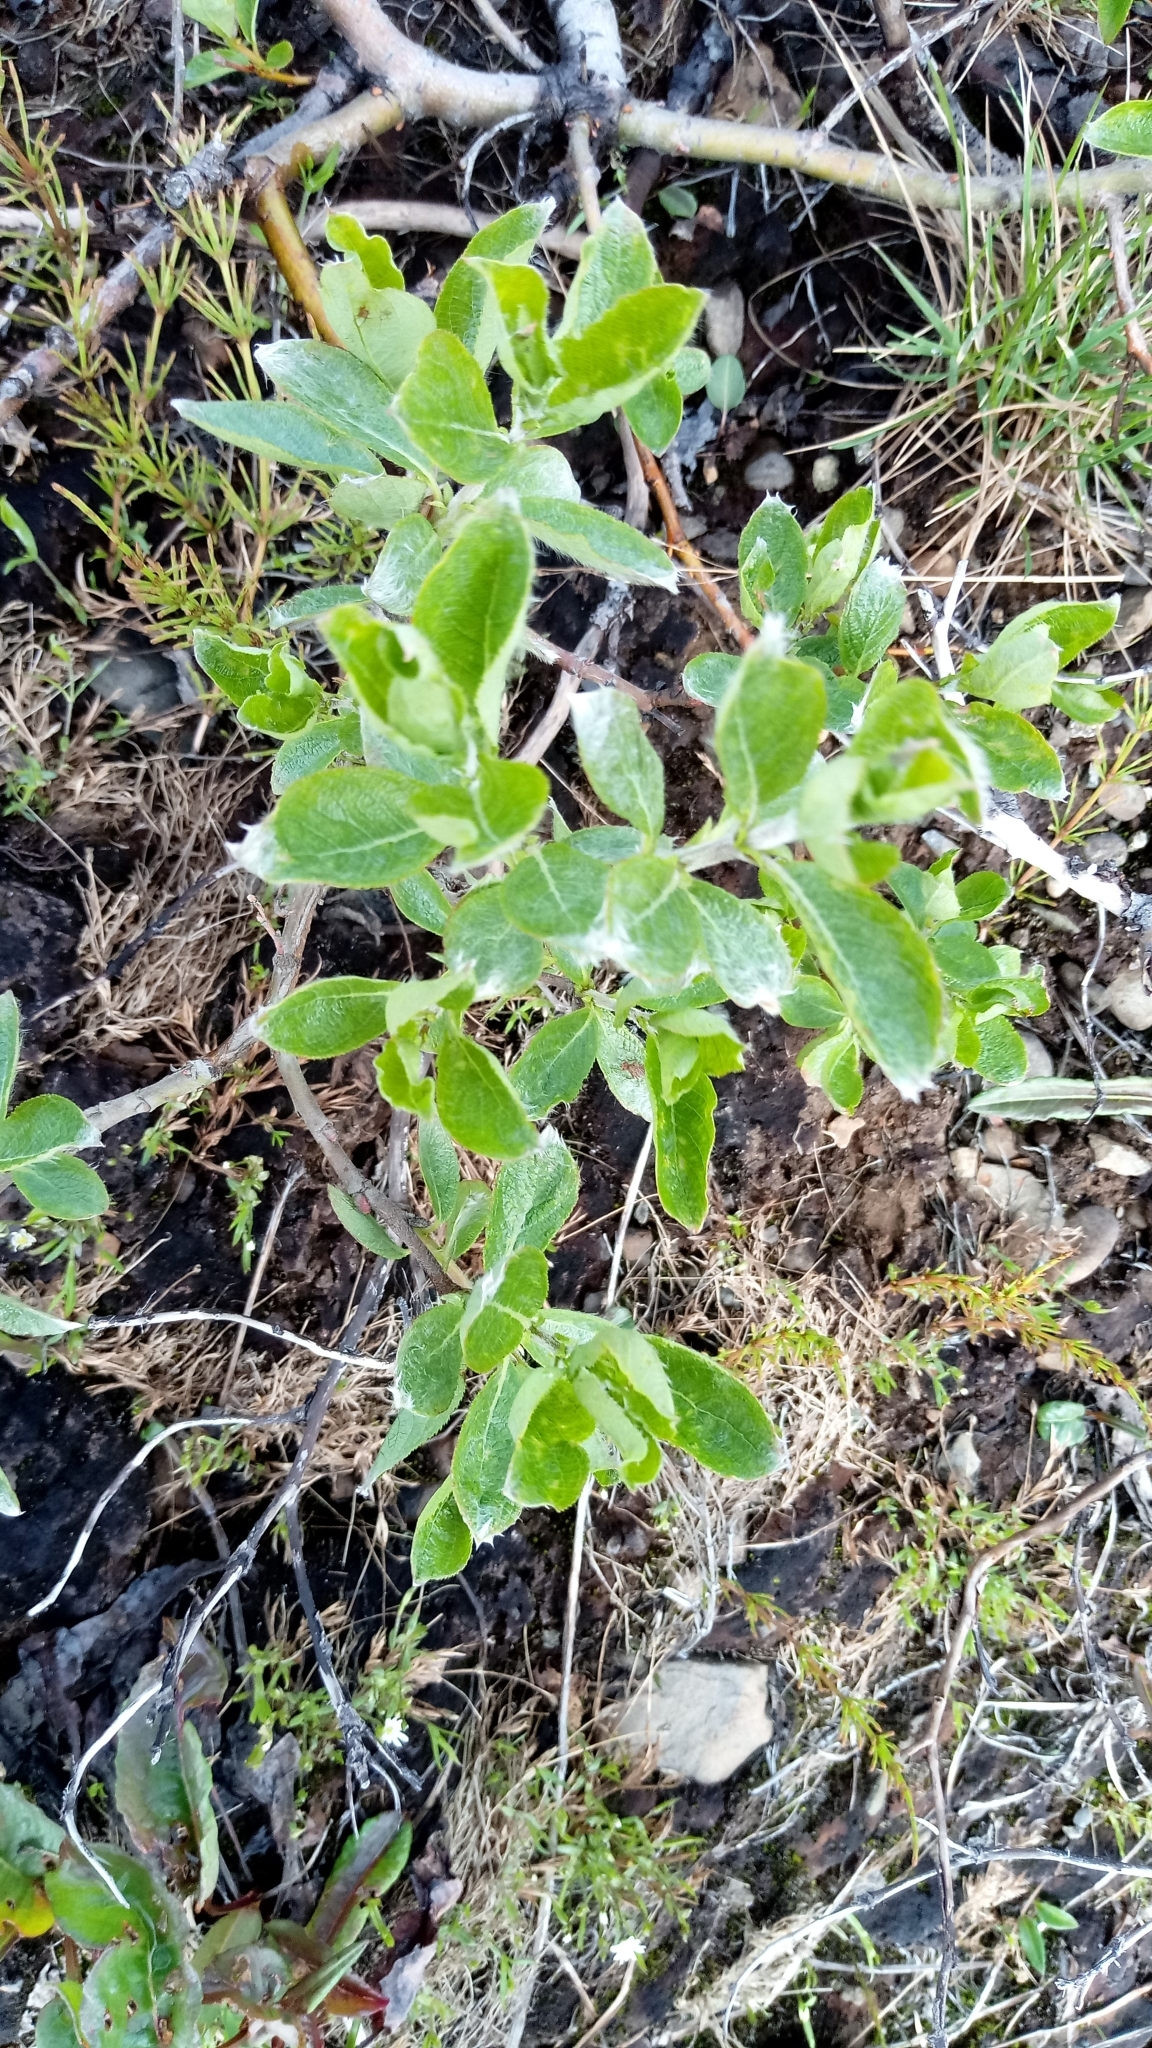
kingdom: Plantae
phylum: Tracheophyta
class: Magnoliopsida
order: Malpighiales
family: Salicaceae
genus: Salix
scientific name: Salix lanata
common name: Woolly willow
